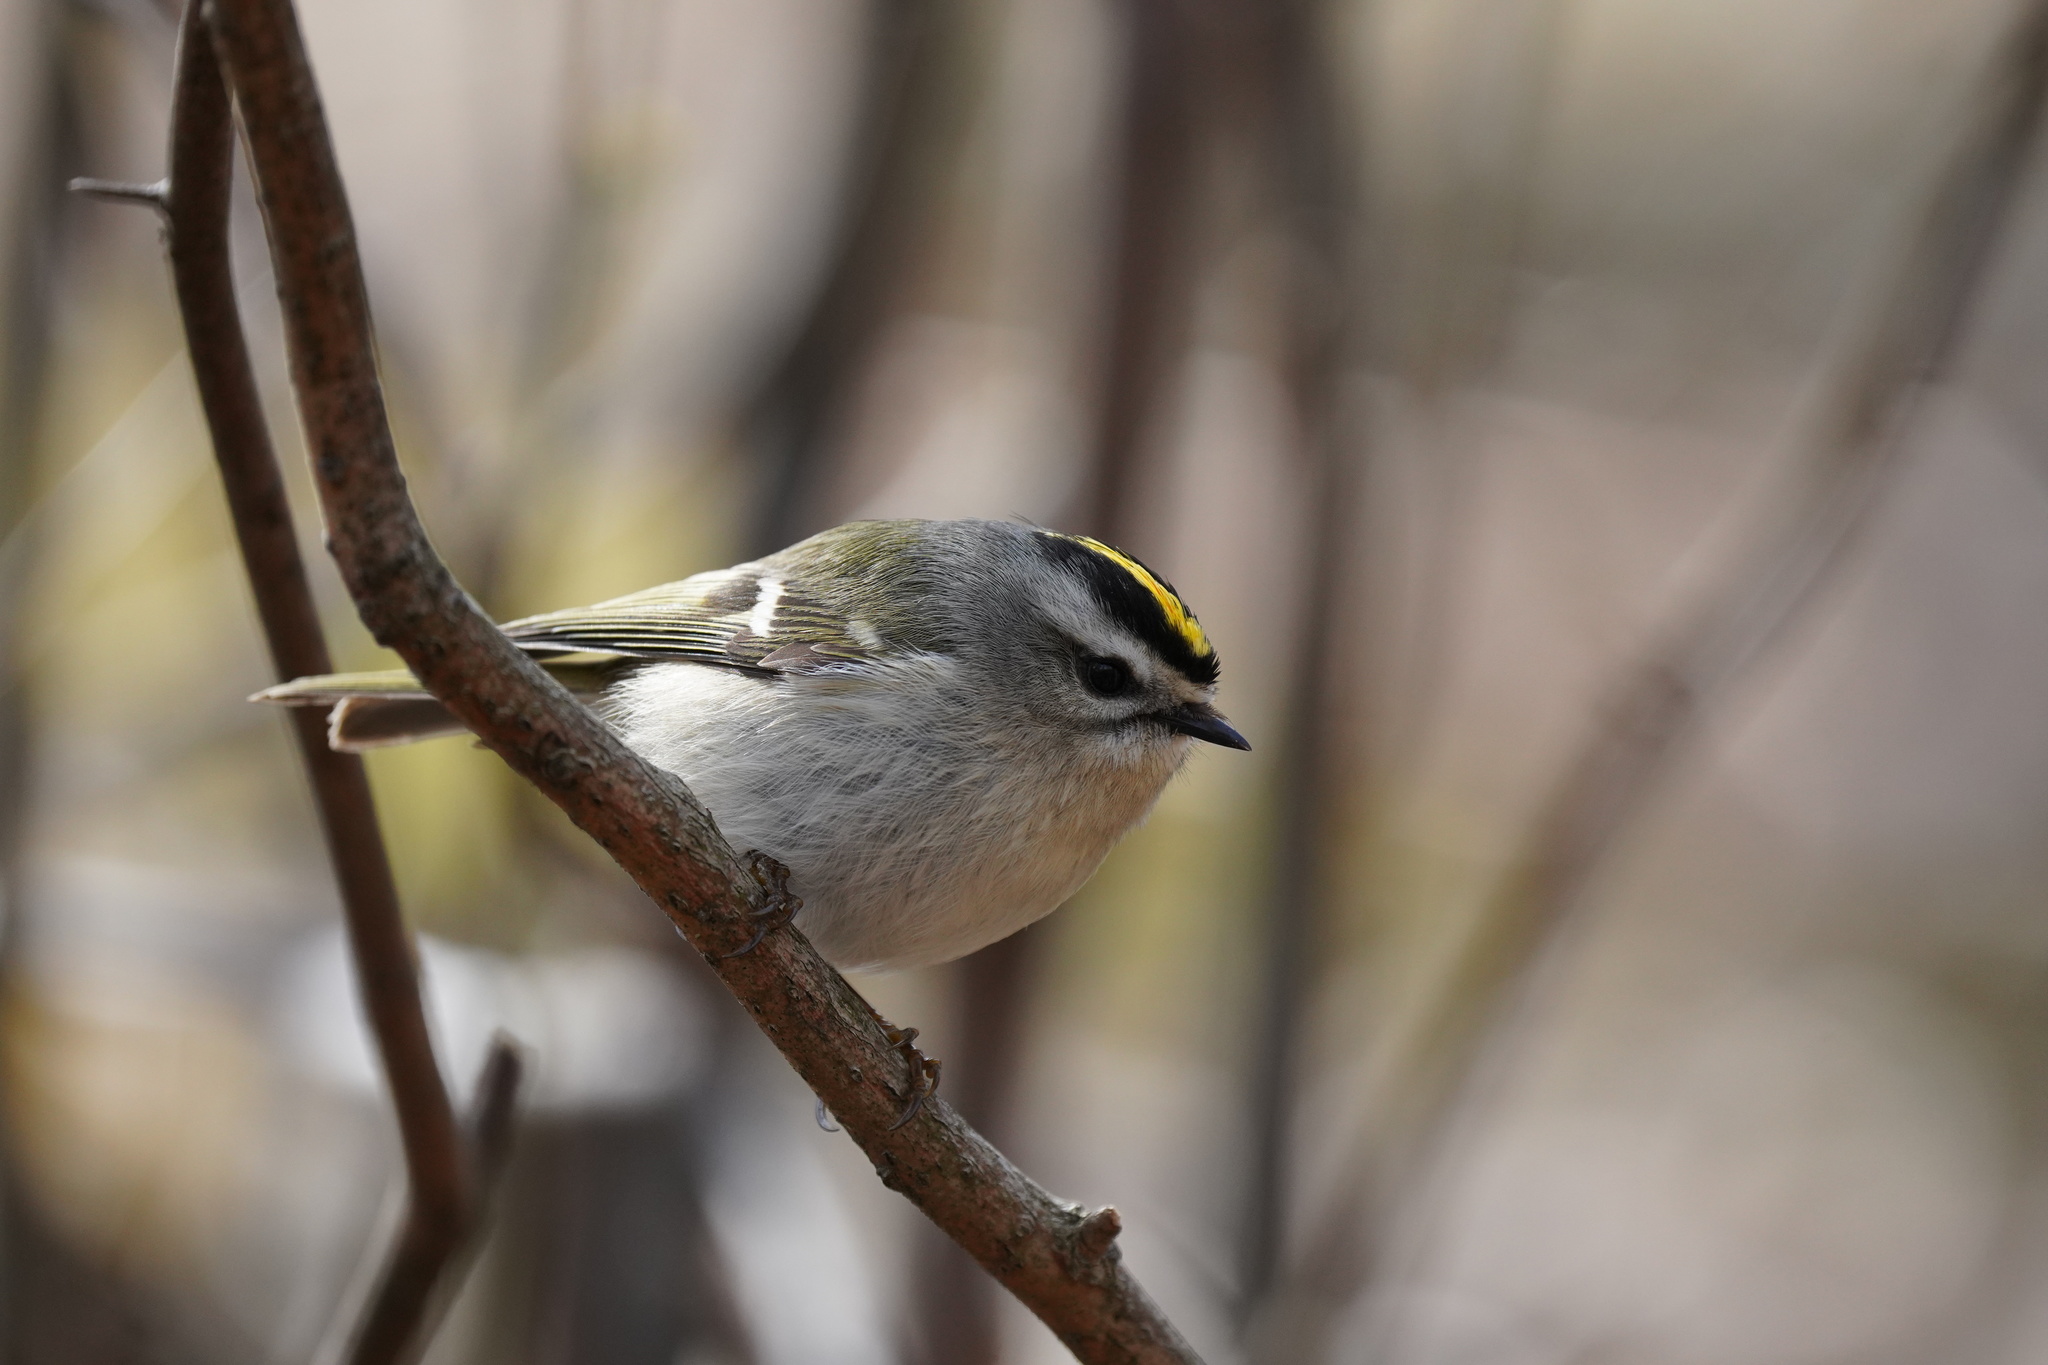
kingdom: Animalia
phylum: Chordata
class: Aves
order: Passeriformes
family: Regulidae
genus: Regulus
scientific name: Regulus satrapa
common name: Golden-crowned kinglet
